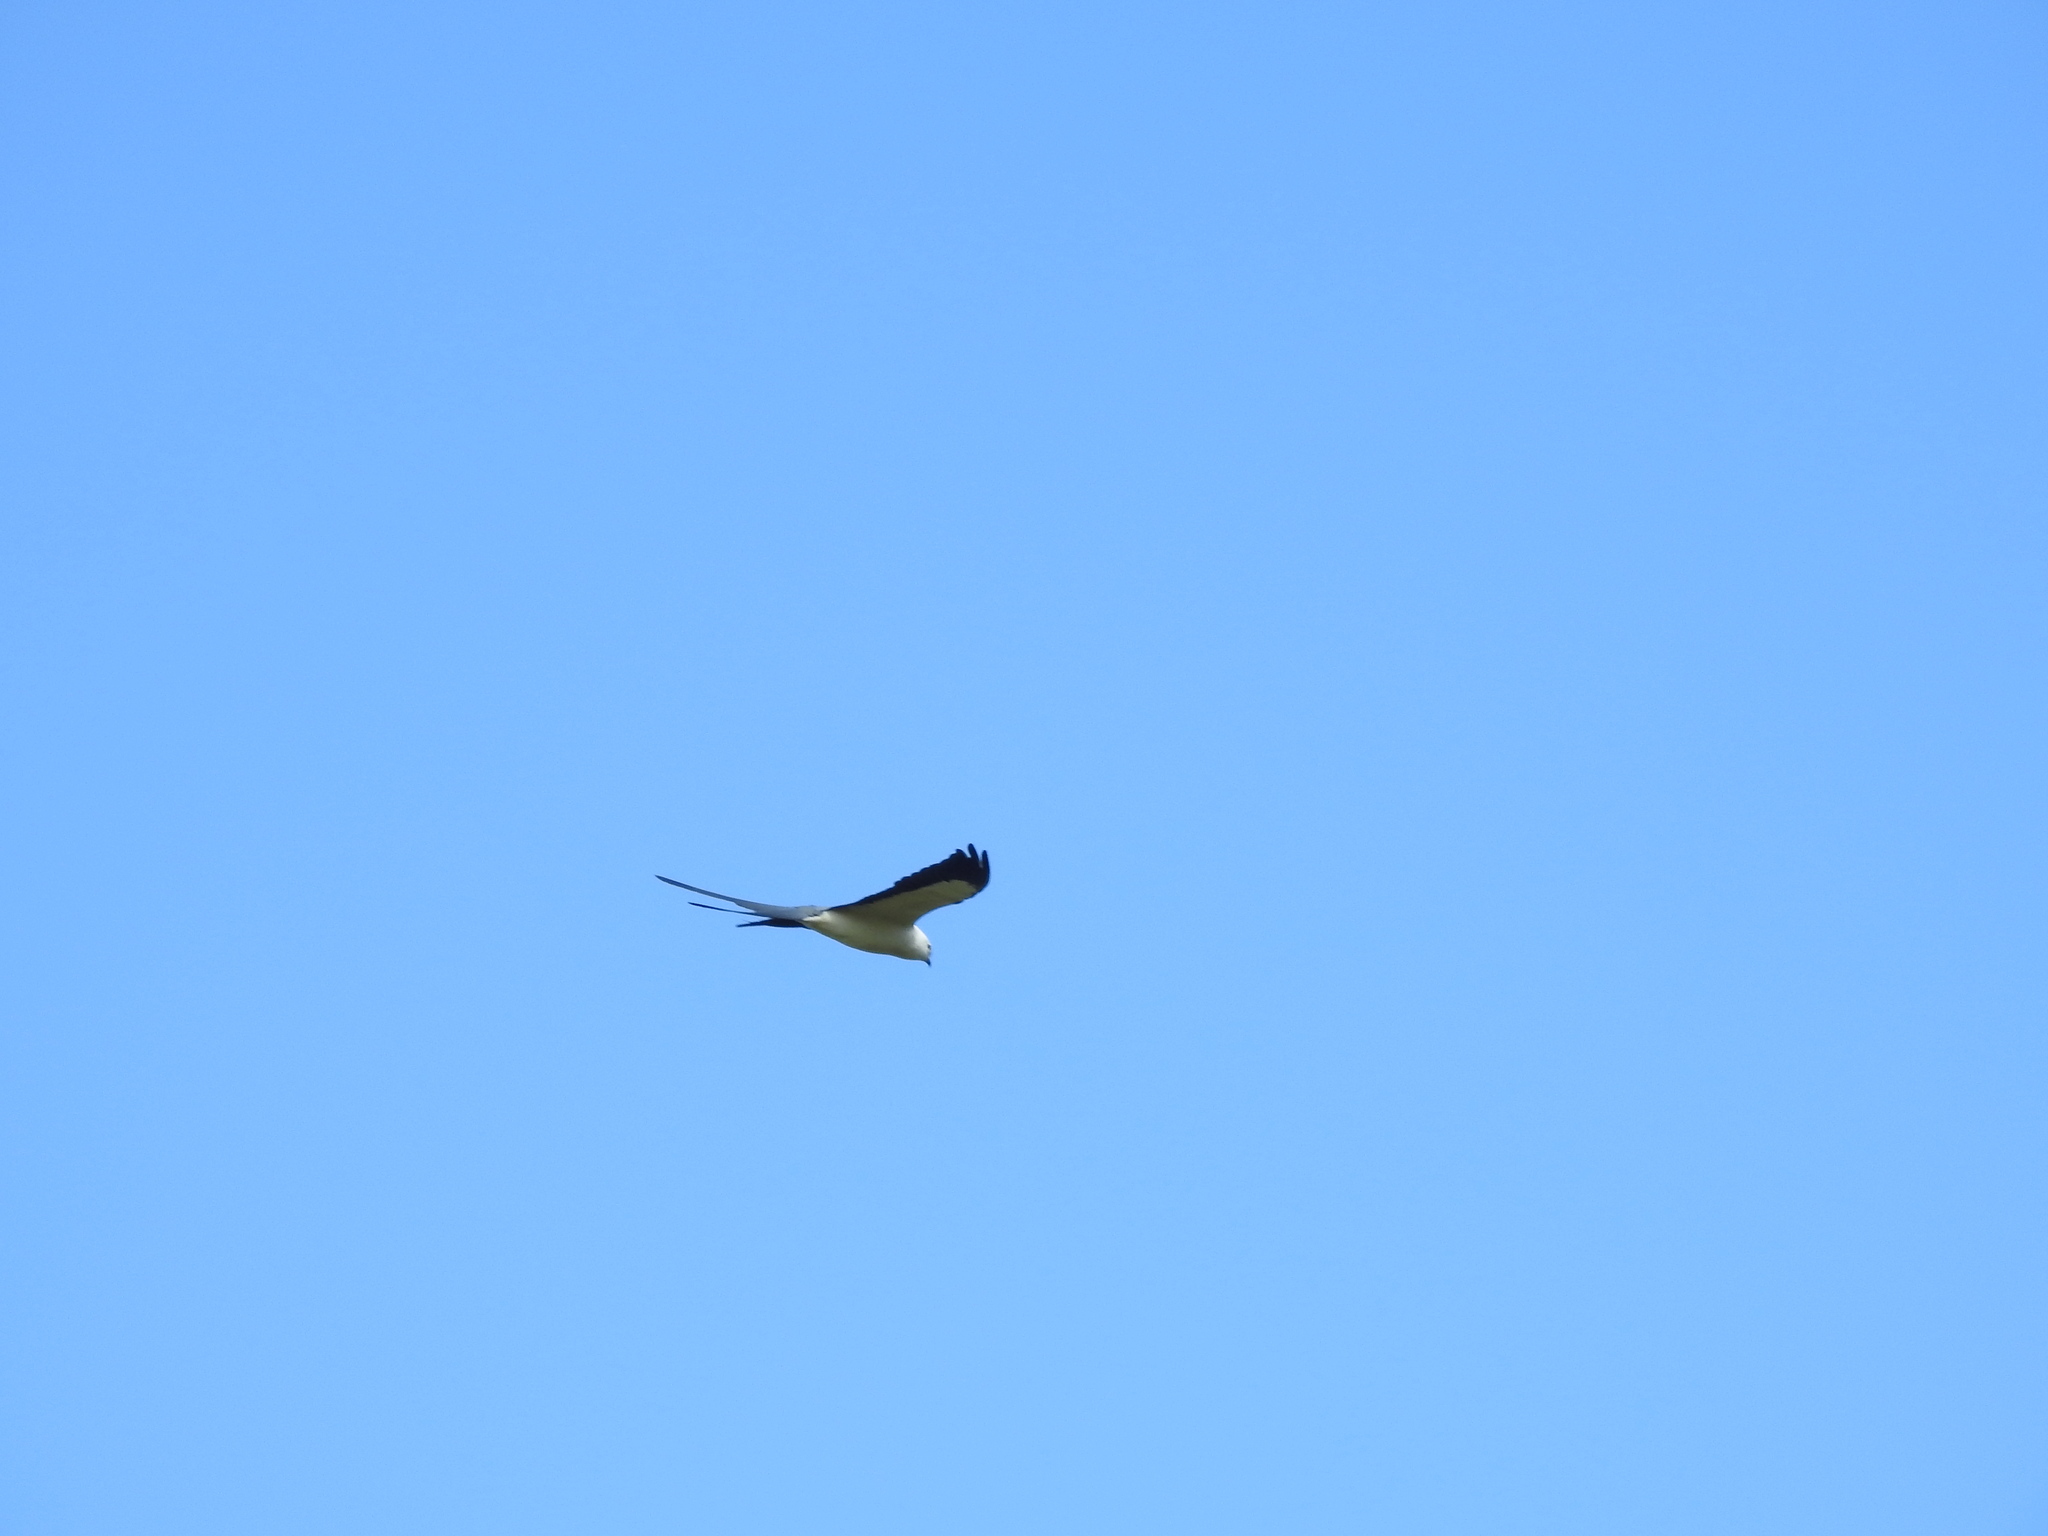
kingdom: Animalia
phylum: Chordata
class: Aves
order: Accipitriformes
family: Accipitridae
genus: Elanoides
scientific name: Elanoides forficatus
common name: Swallow-tailed kite
